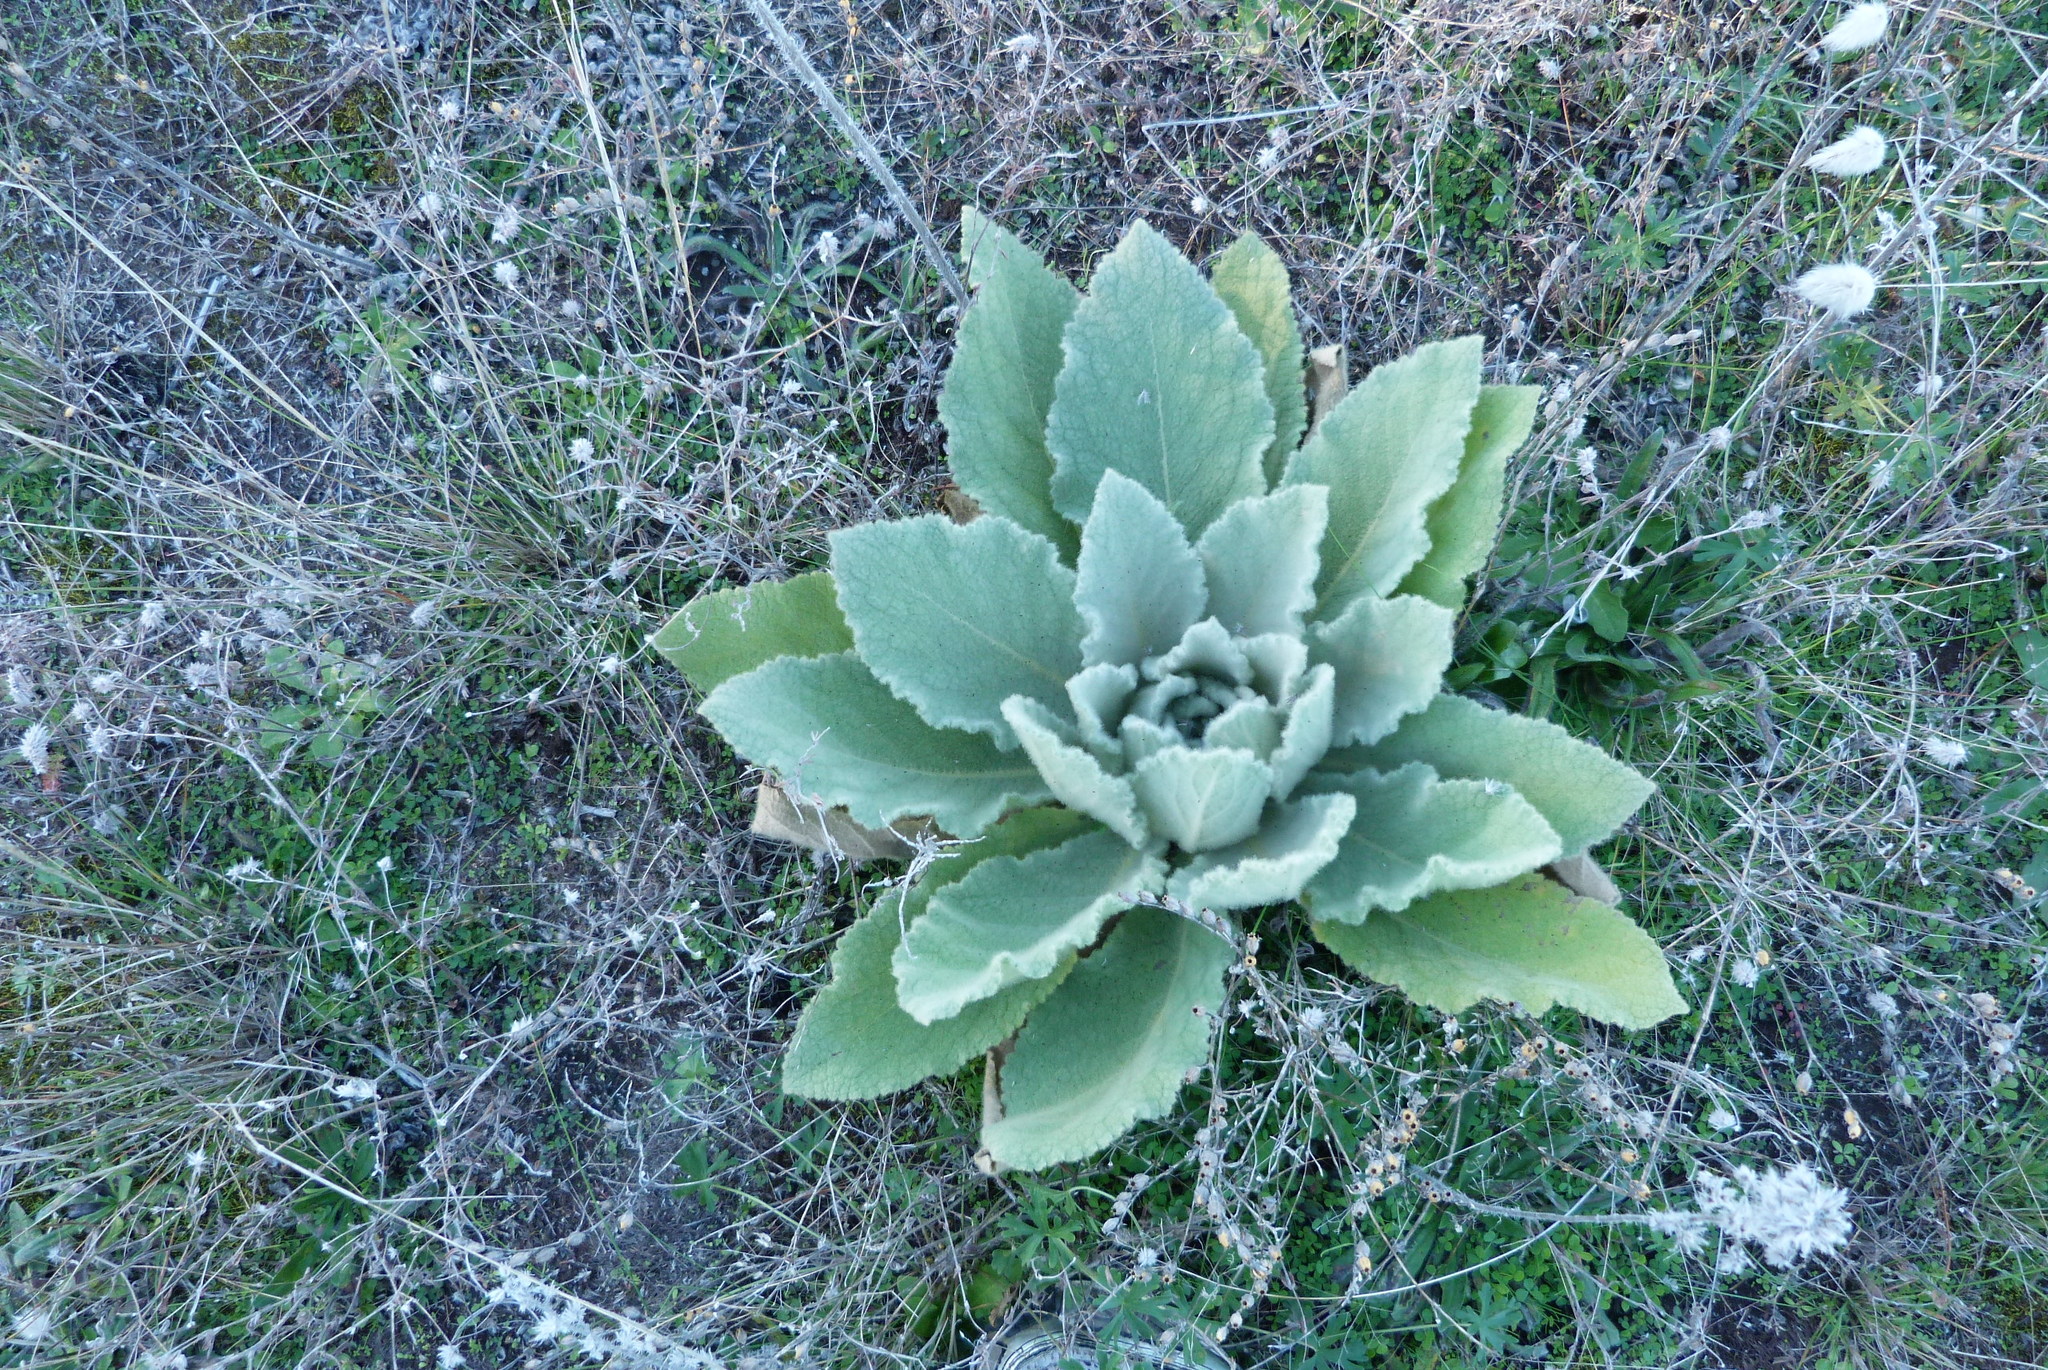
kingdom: Plantae
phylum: Tracheophyta
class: Magnoliopsida
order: Lamiales
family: Scrophulariaceae
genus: Verbascum
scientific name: Verbascum thapsus
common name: Common mullein
